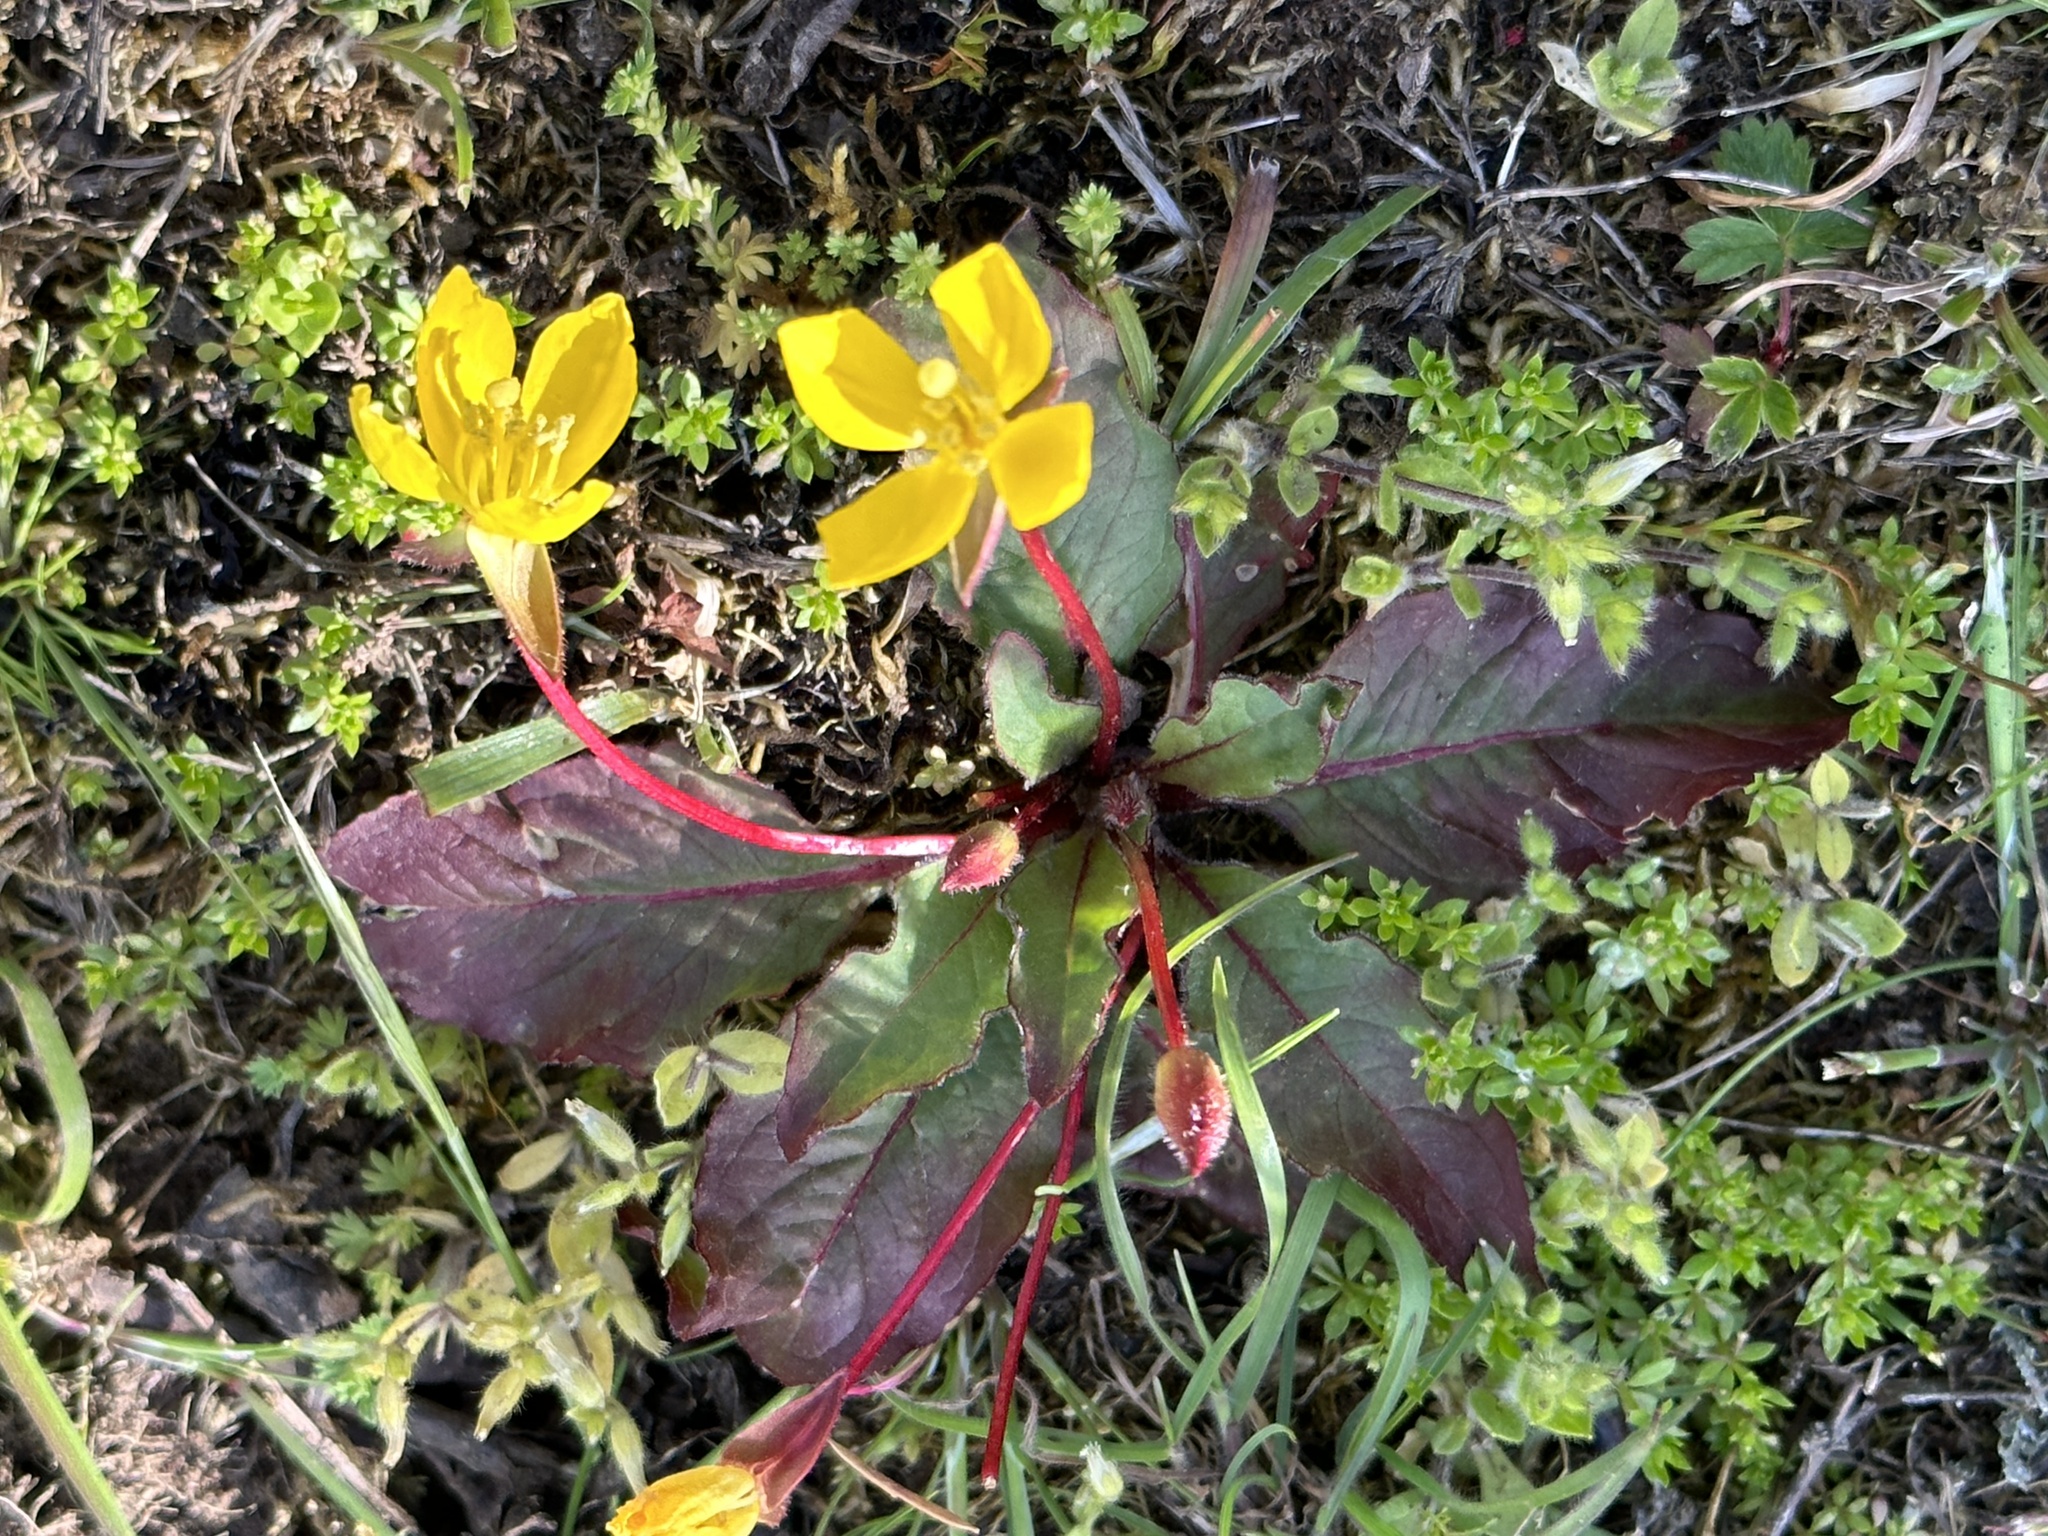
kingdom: Plantae
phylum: Tracheophyta
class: Magnoliopsida
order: Myrtales
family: Onagraceae
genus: Taraxia
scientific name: Taraxia ovata
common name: Goldeneggs
